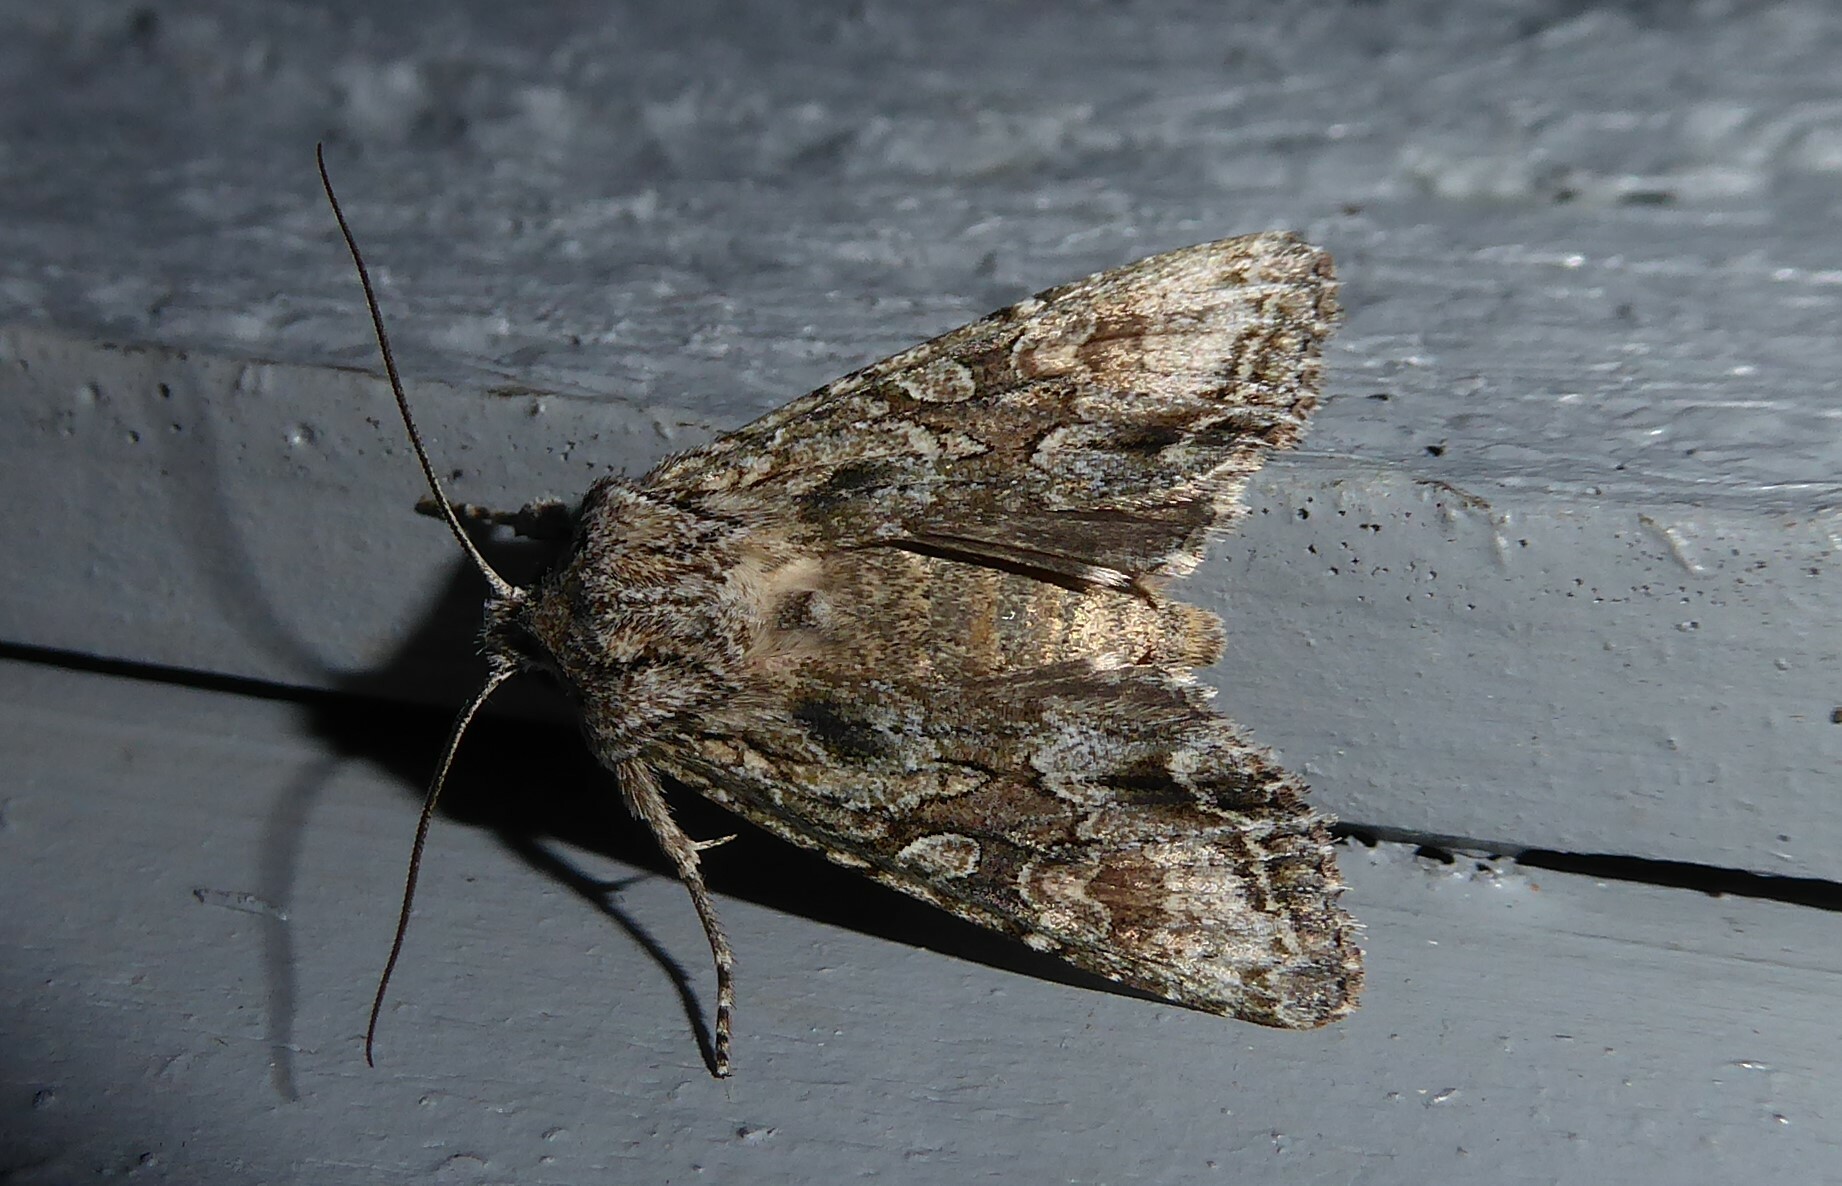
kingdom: Animalia
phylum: Arthropoda
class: Insecta
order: Lepidoptera
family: Noctuidae
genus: Ichneutica
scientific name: Ichneutica mutans
